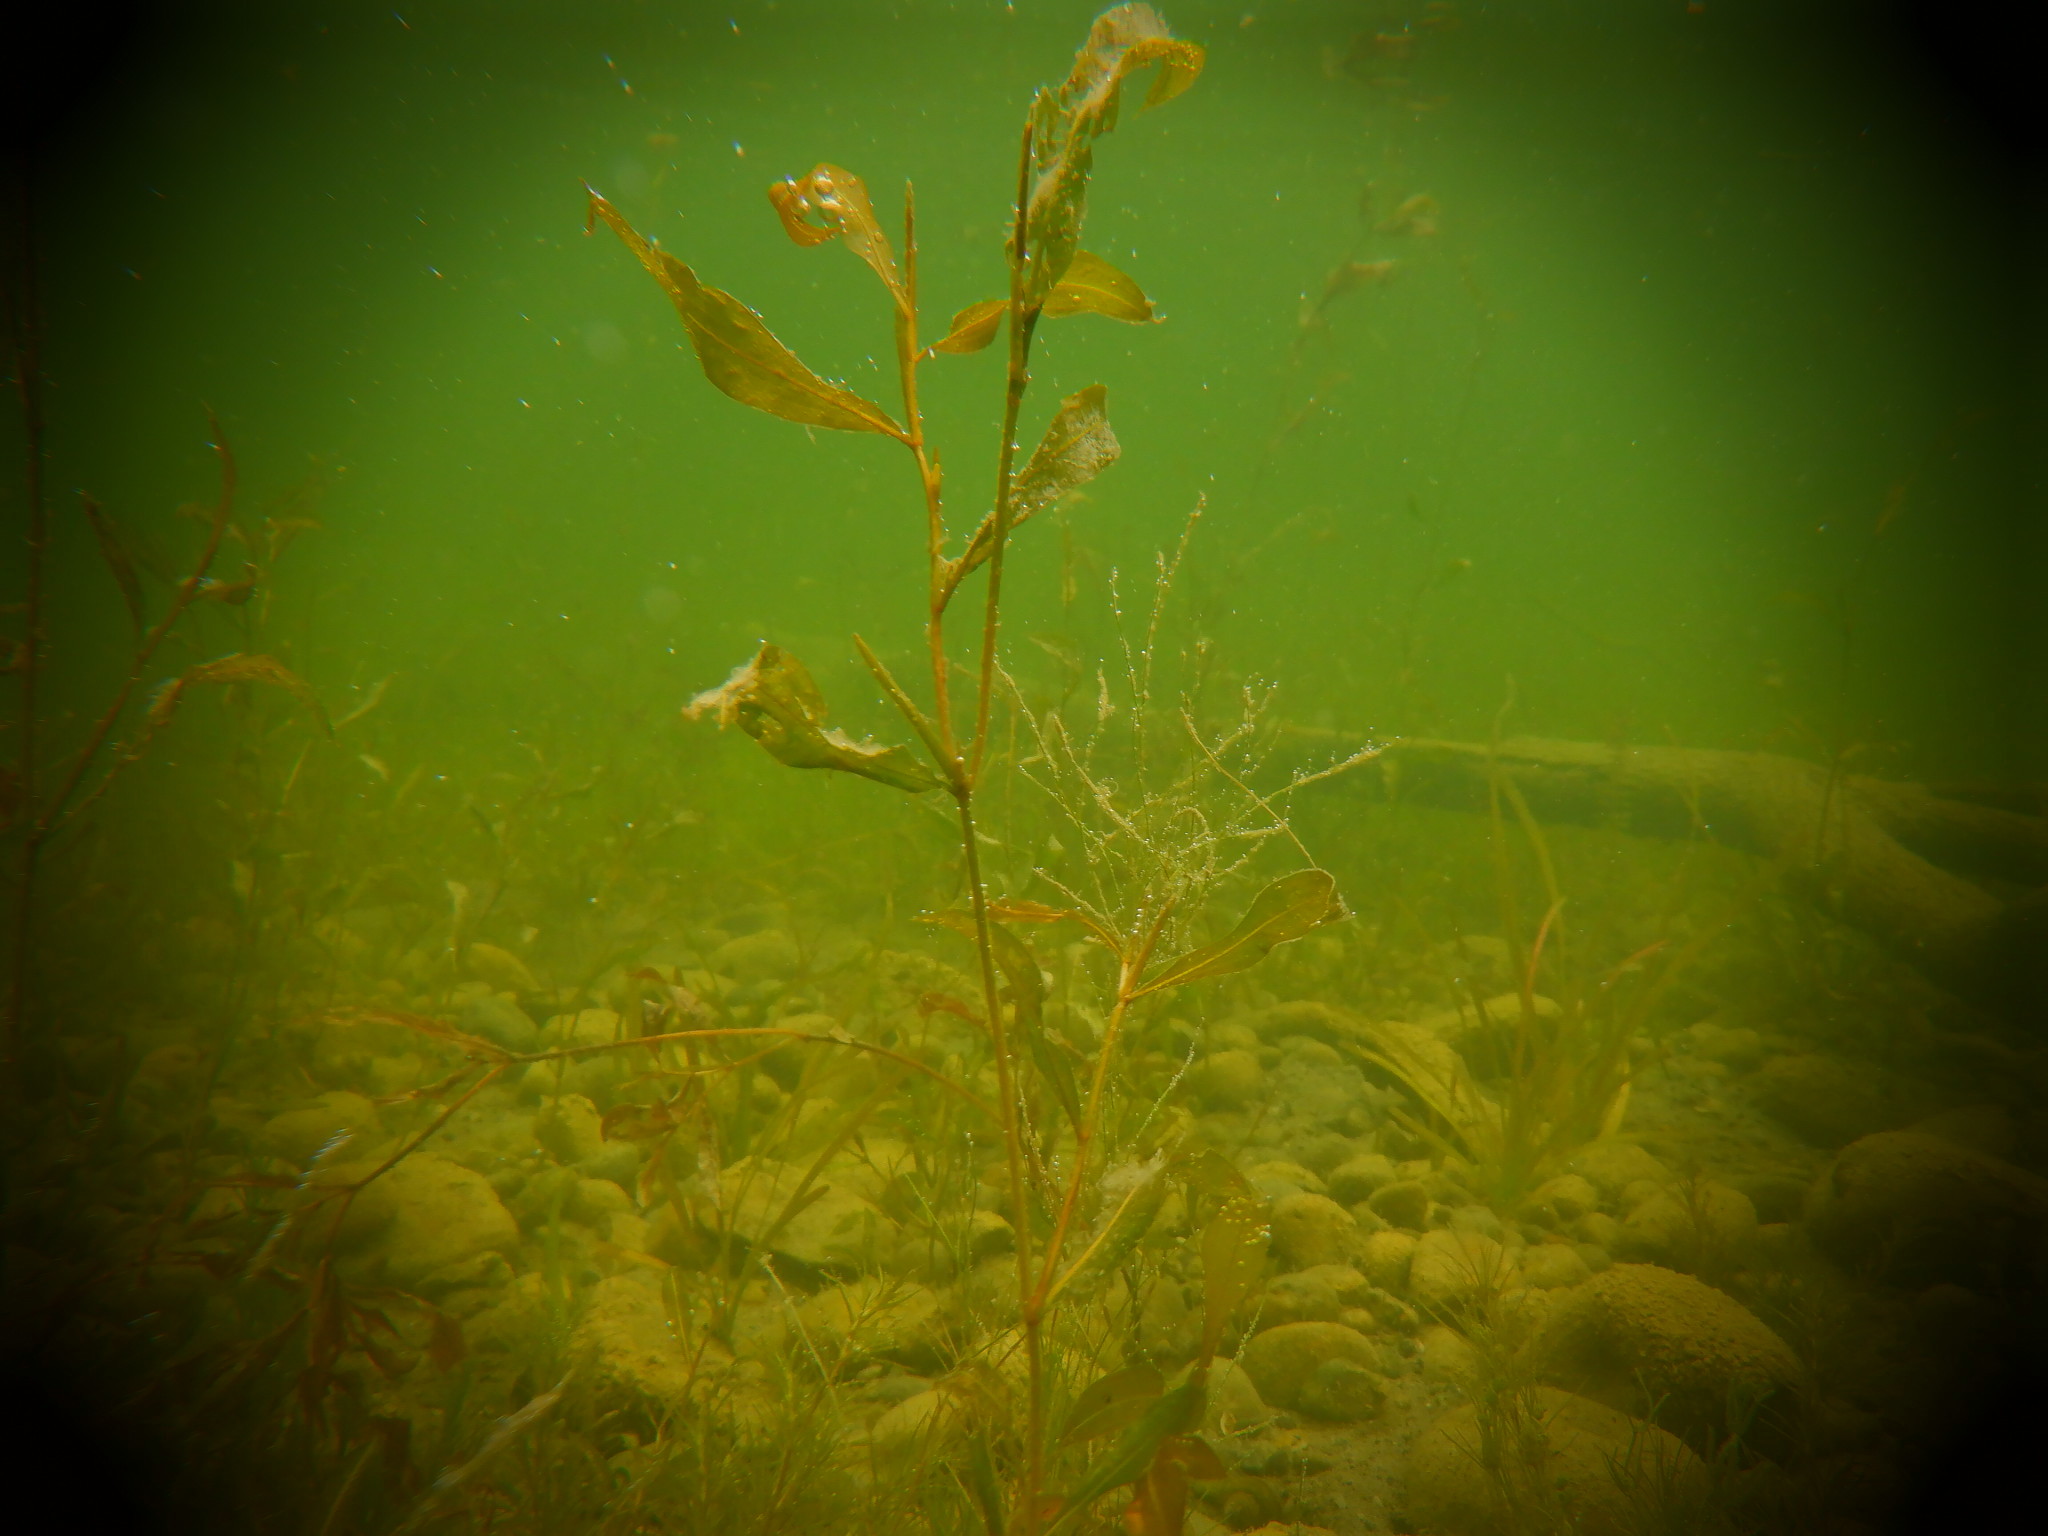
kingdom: Plantae
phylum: Tracheophyta
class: Liliopsida
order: Alismatales
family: Potamogetonaceae
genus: Potamogeton
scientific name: Potamogeton illinoensis
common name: Illinois pondweed
